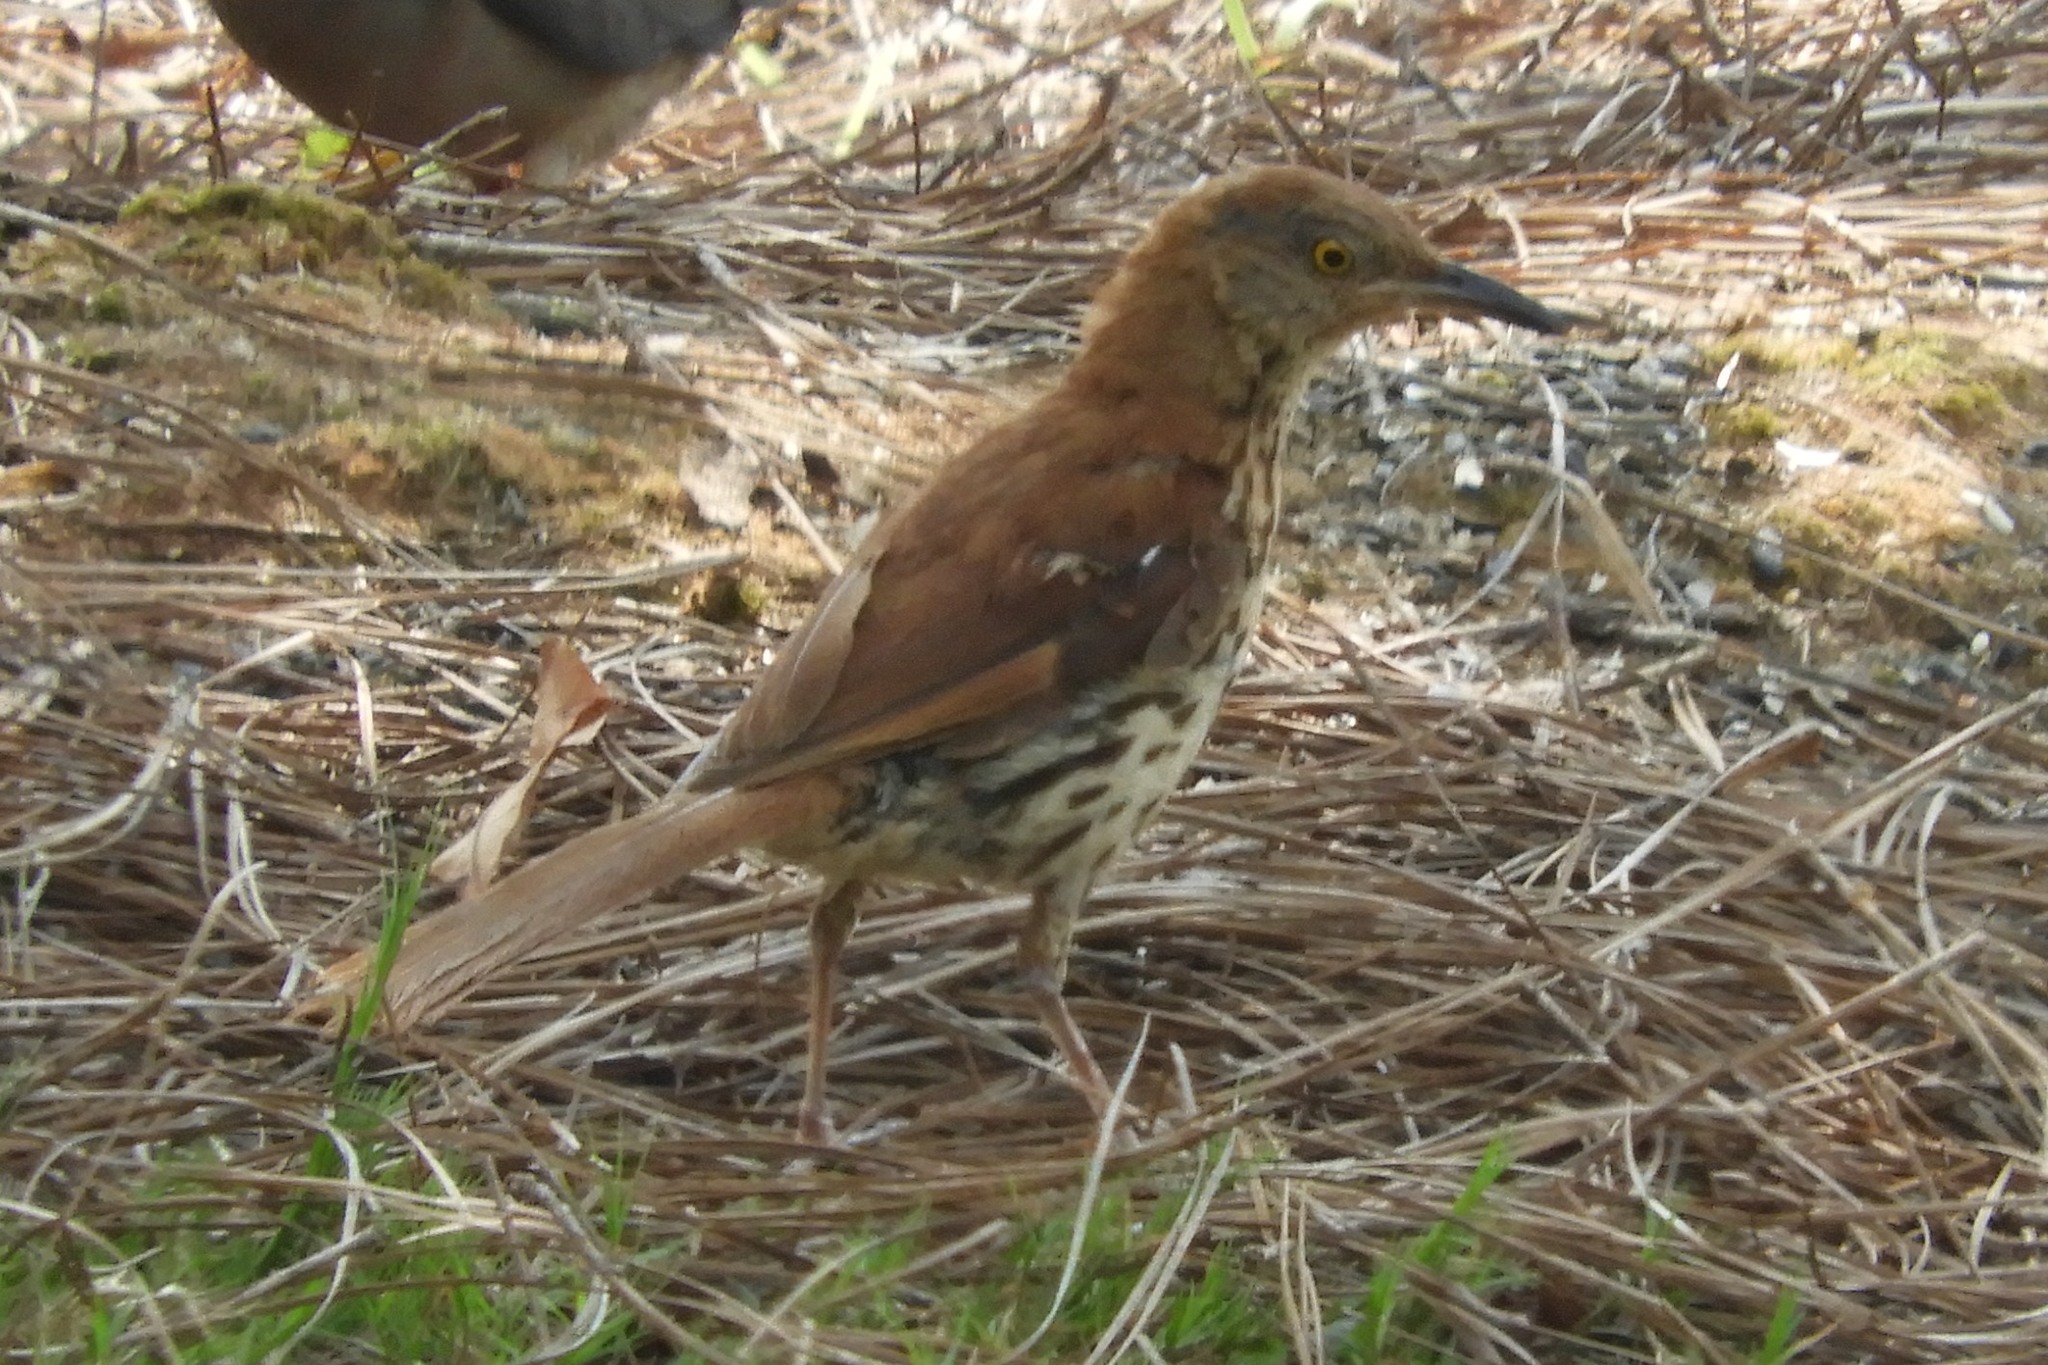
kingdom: Animalia
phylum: Chordata
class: Aves
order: Passeriformes
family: Mimidae
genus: Toxostoma
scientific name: Toxostoma rufum
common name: Brown thrasher
